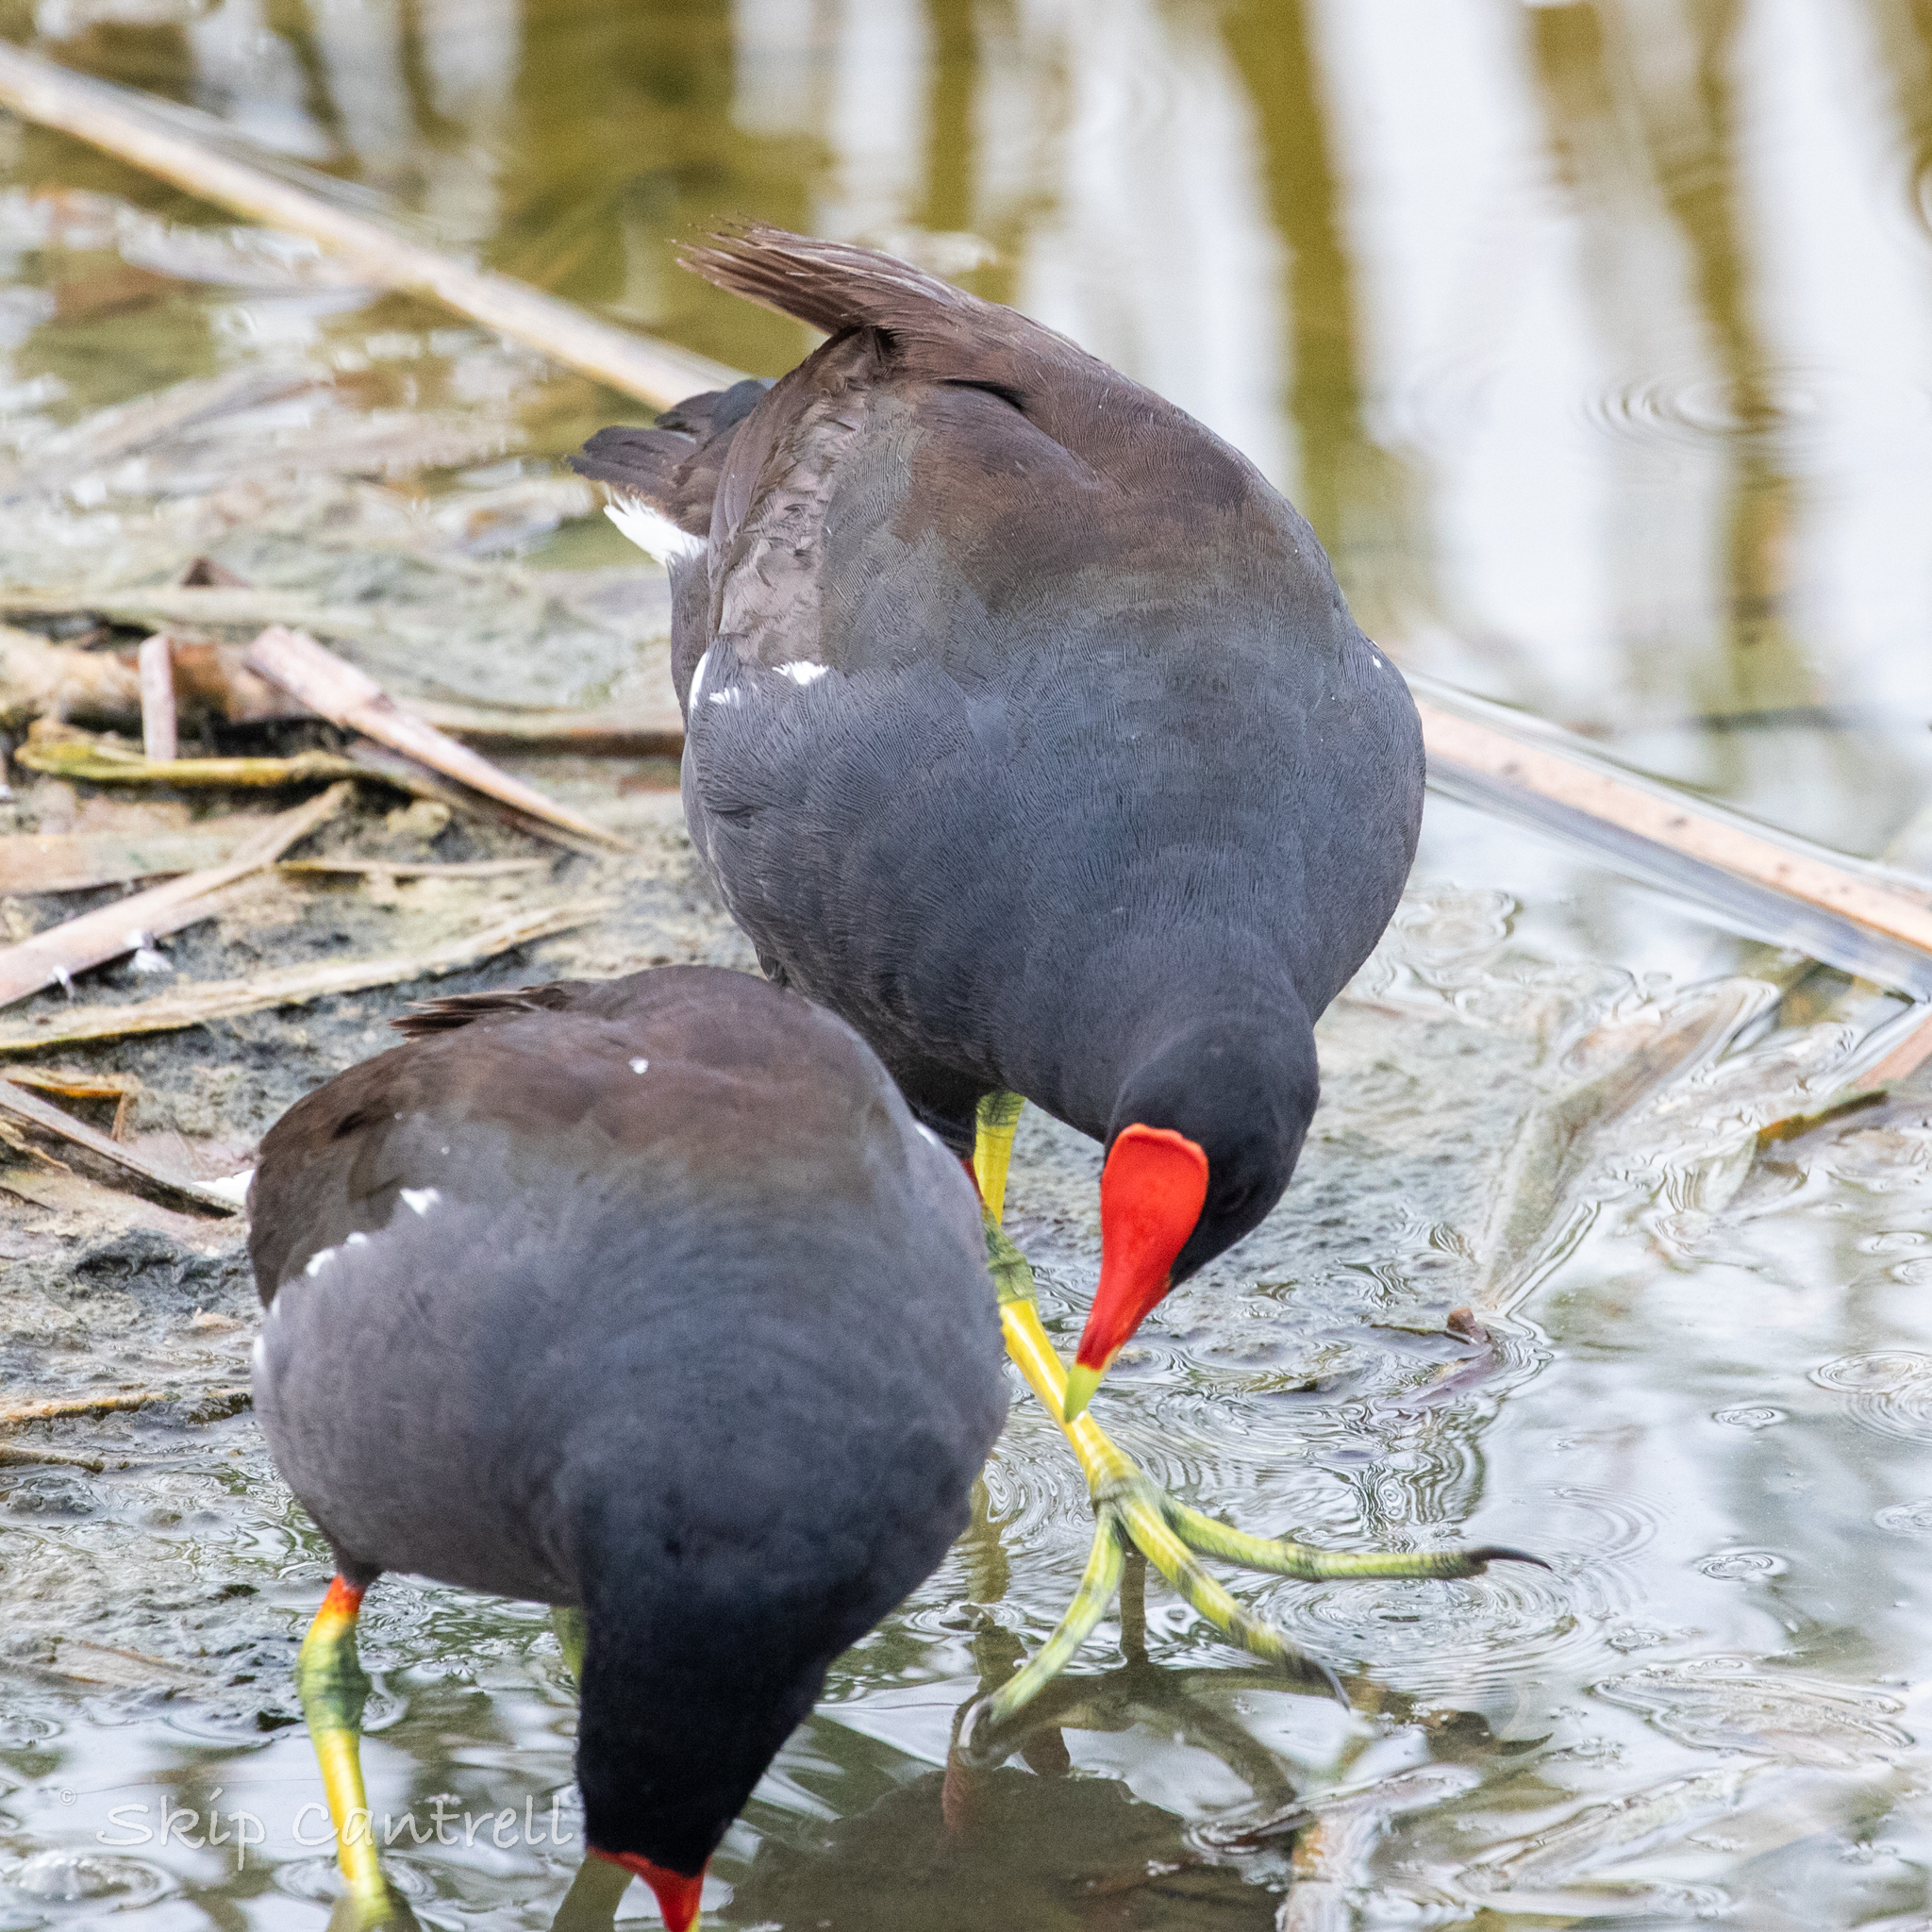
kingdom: Animalia
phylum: Chordata
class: Aves
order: Gruiformes
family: Rallidae
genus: Gallinula
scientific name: Gallinula chloropus
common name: Common moorhen
